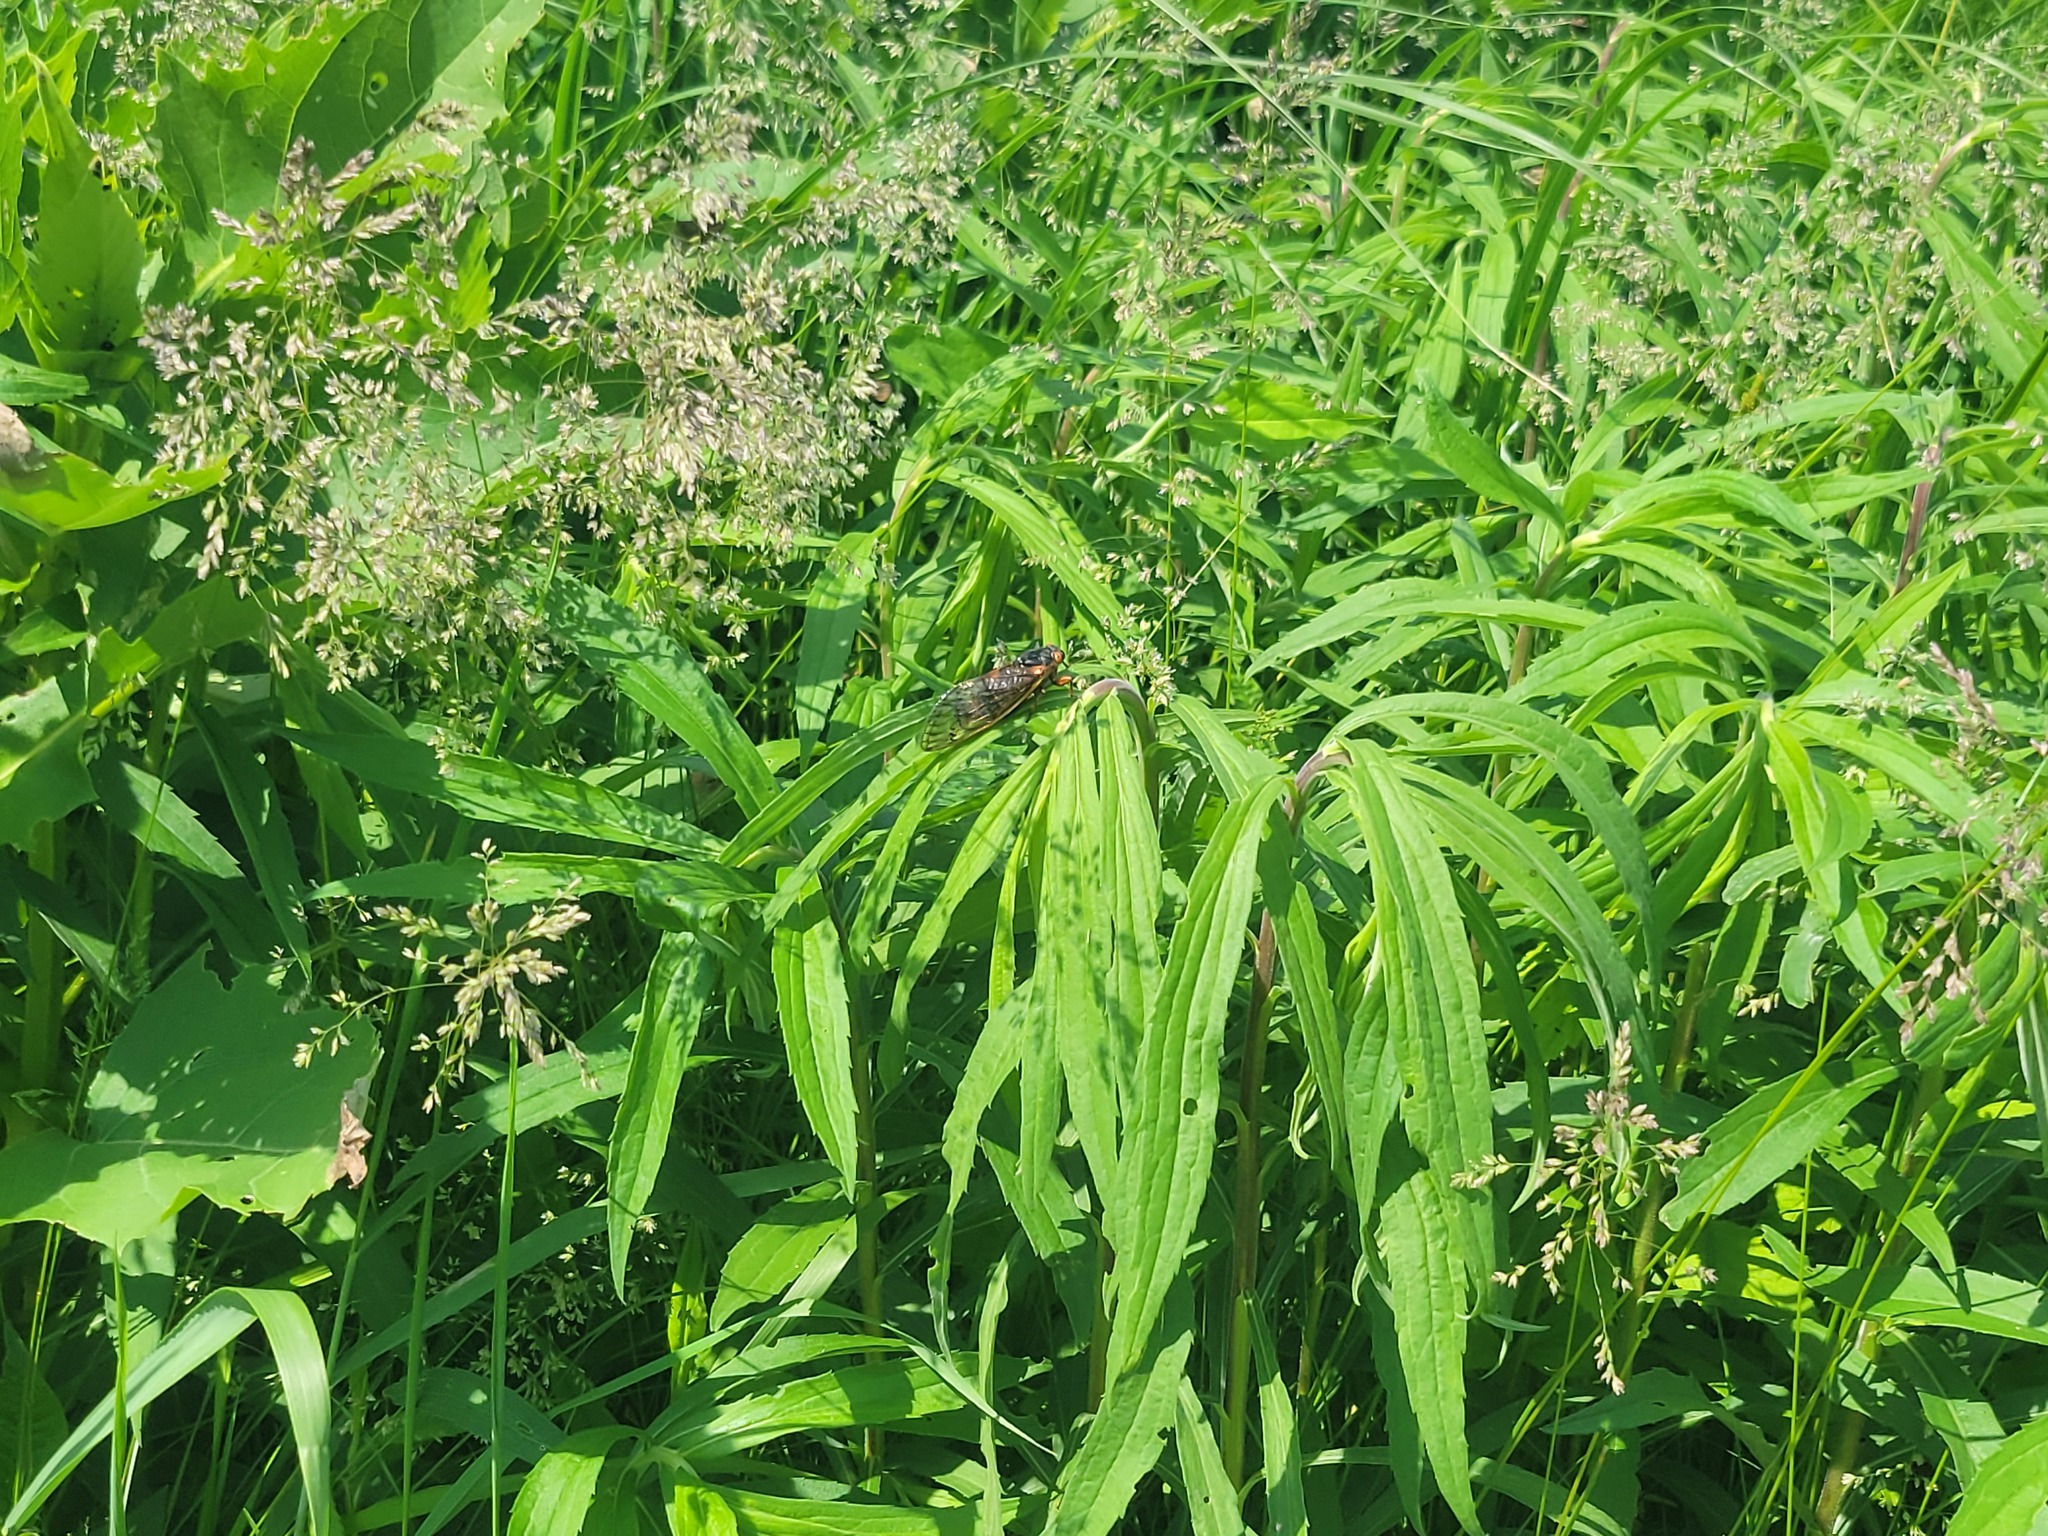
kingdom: Animalia
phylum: Arthropoda
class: Insecta
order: Hemiptera
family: Cicadidae
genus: Magicicada
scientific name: Magicicada septendecim
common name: Periodical cicada
